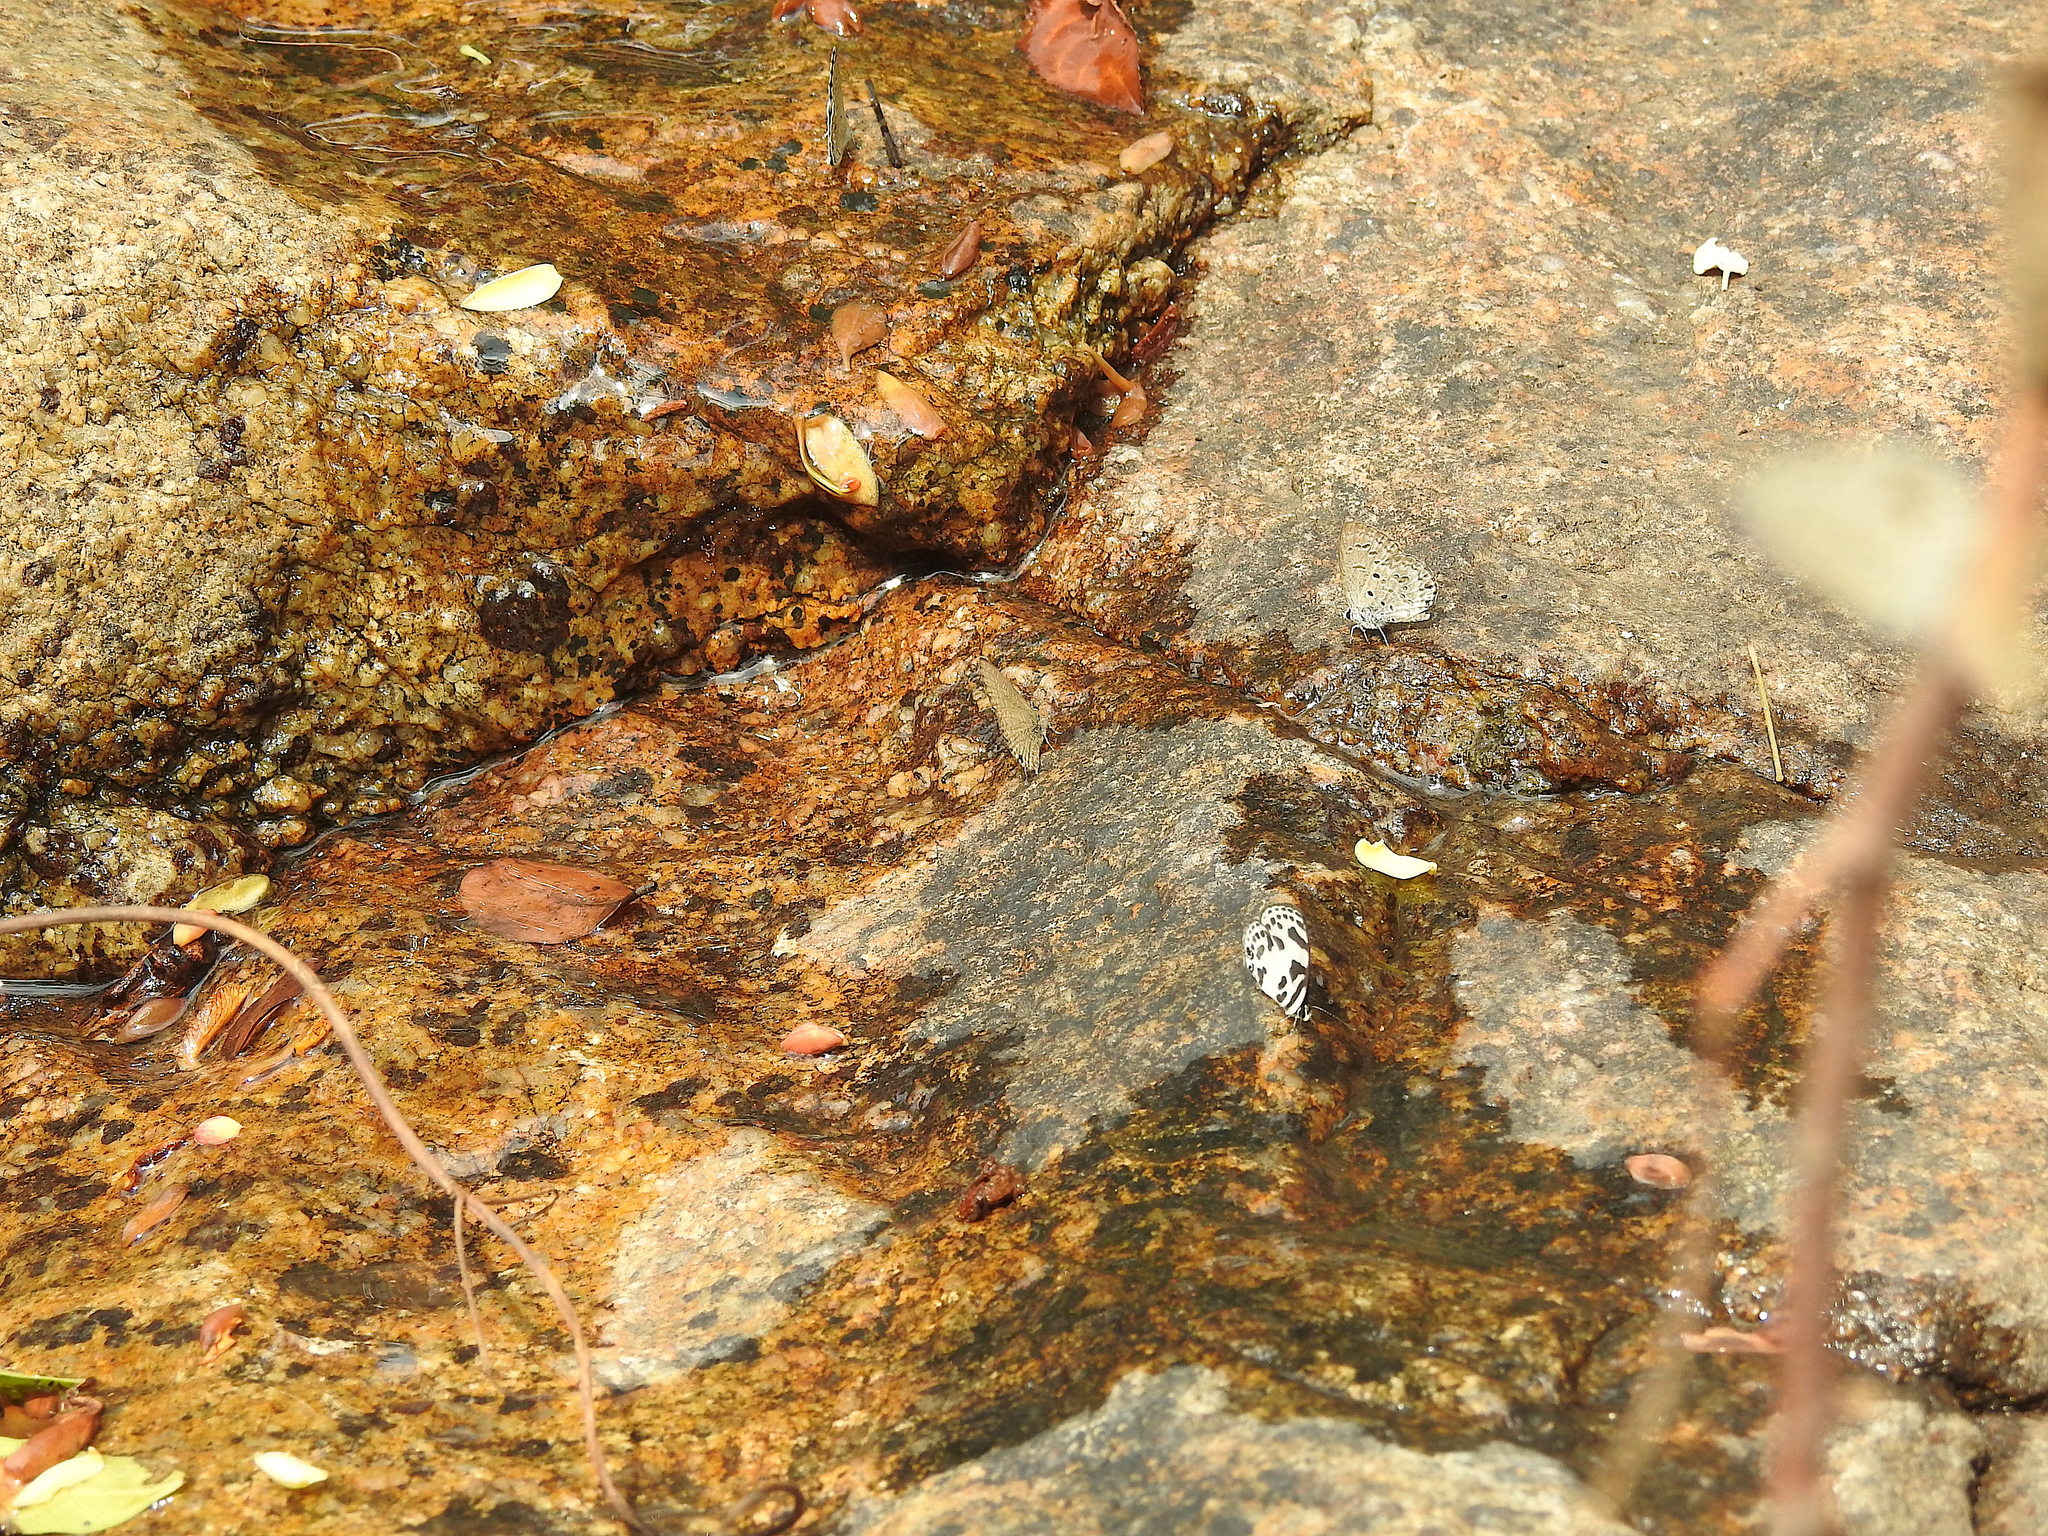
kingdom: Animalia
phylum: Arthropoda
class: Insecta
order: Lepidoptera
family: Lycaenidae
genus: Discolampa
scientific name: Discolampa ethion
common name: Banded blue pierrot
